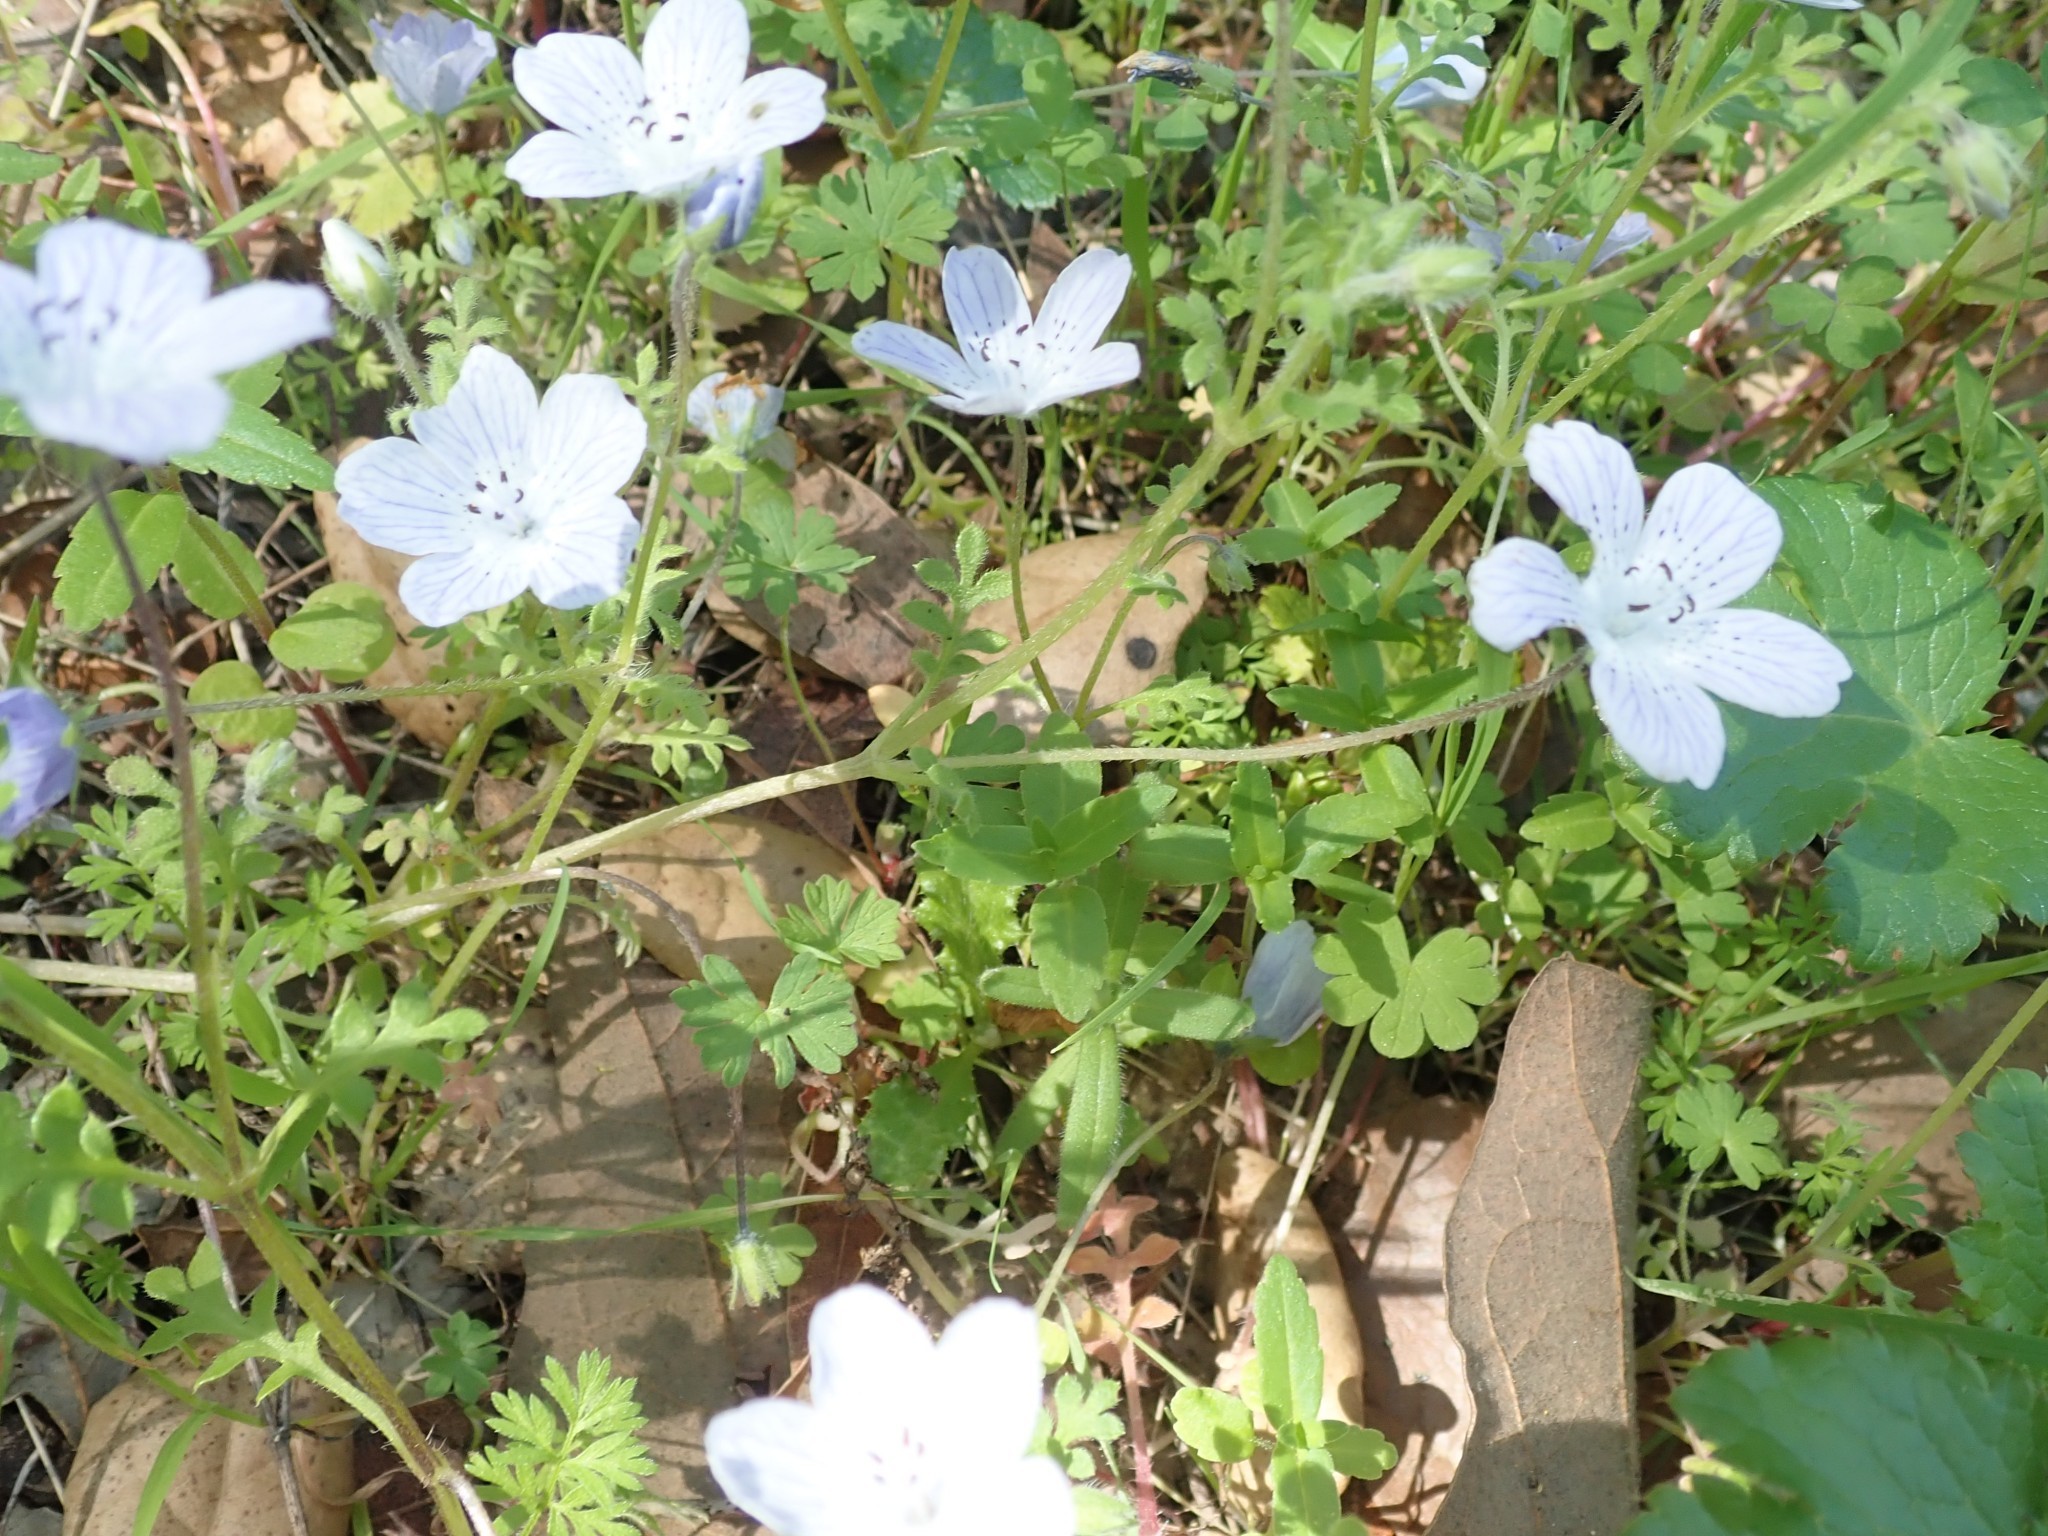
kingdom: Plantae
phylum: Tracheophyta
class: Magnoliopsida
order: Boraginales
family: Hydrophyllaceae
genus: Nemophila
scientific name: Nemophila menziesii
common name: Baby's-blue-eyes
